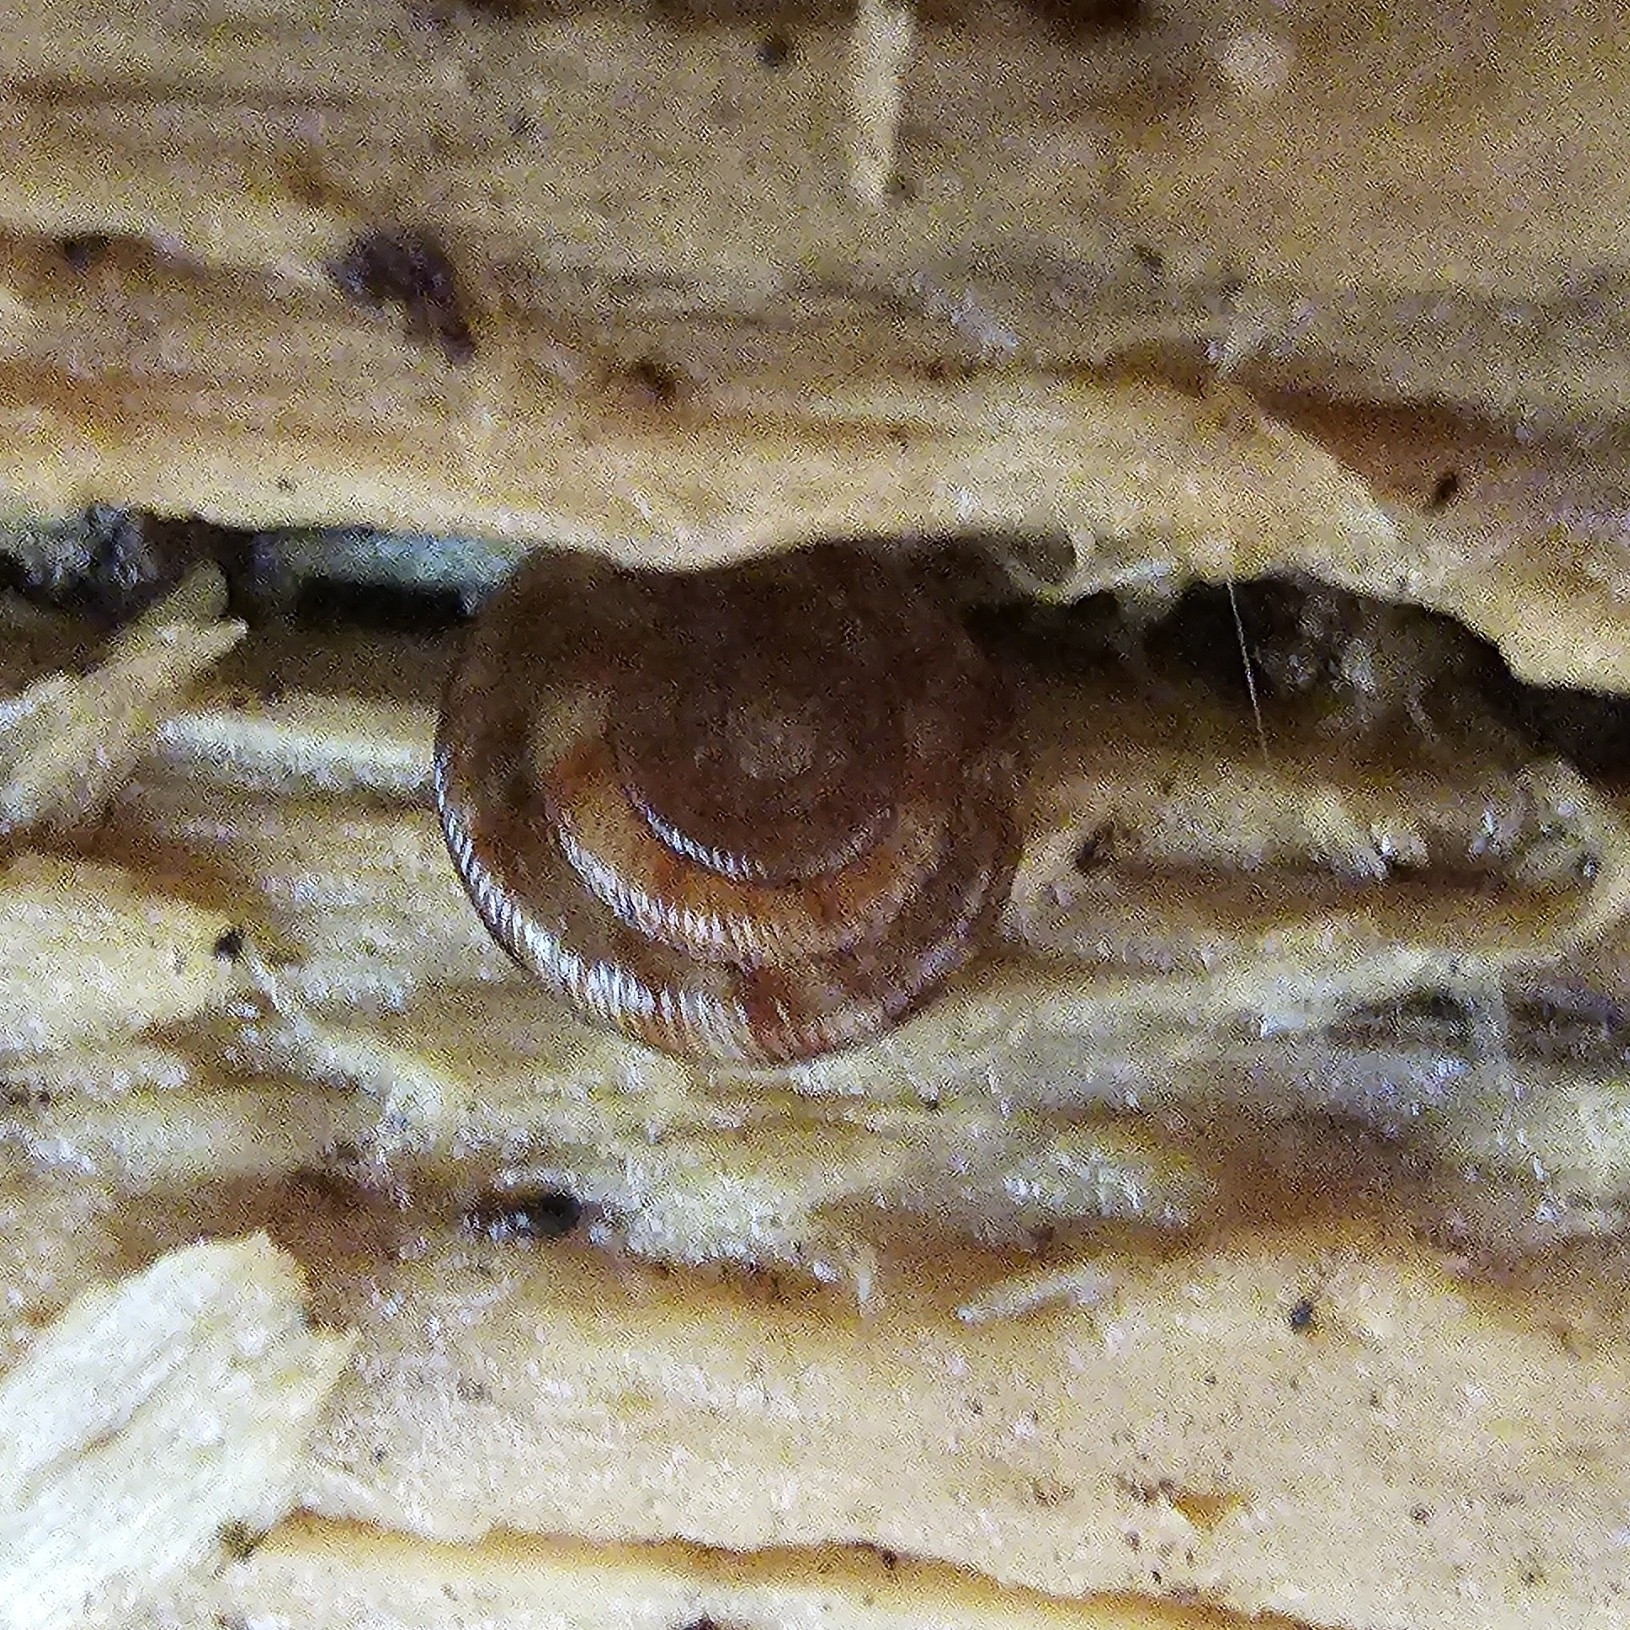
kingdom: Animalia
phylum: Mollusca
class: Gastropoda
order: Stylommatophora
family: Discidae
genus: Discus
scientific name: Discus rotundatus
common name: Rounded snail
